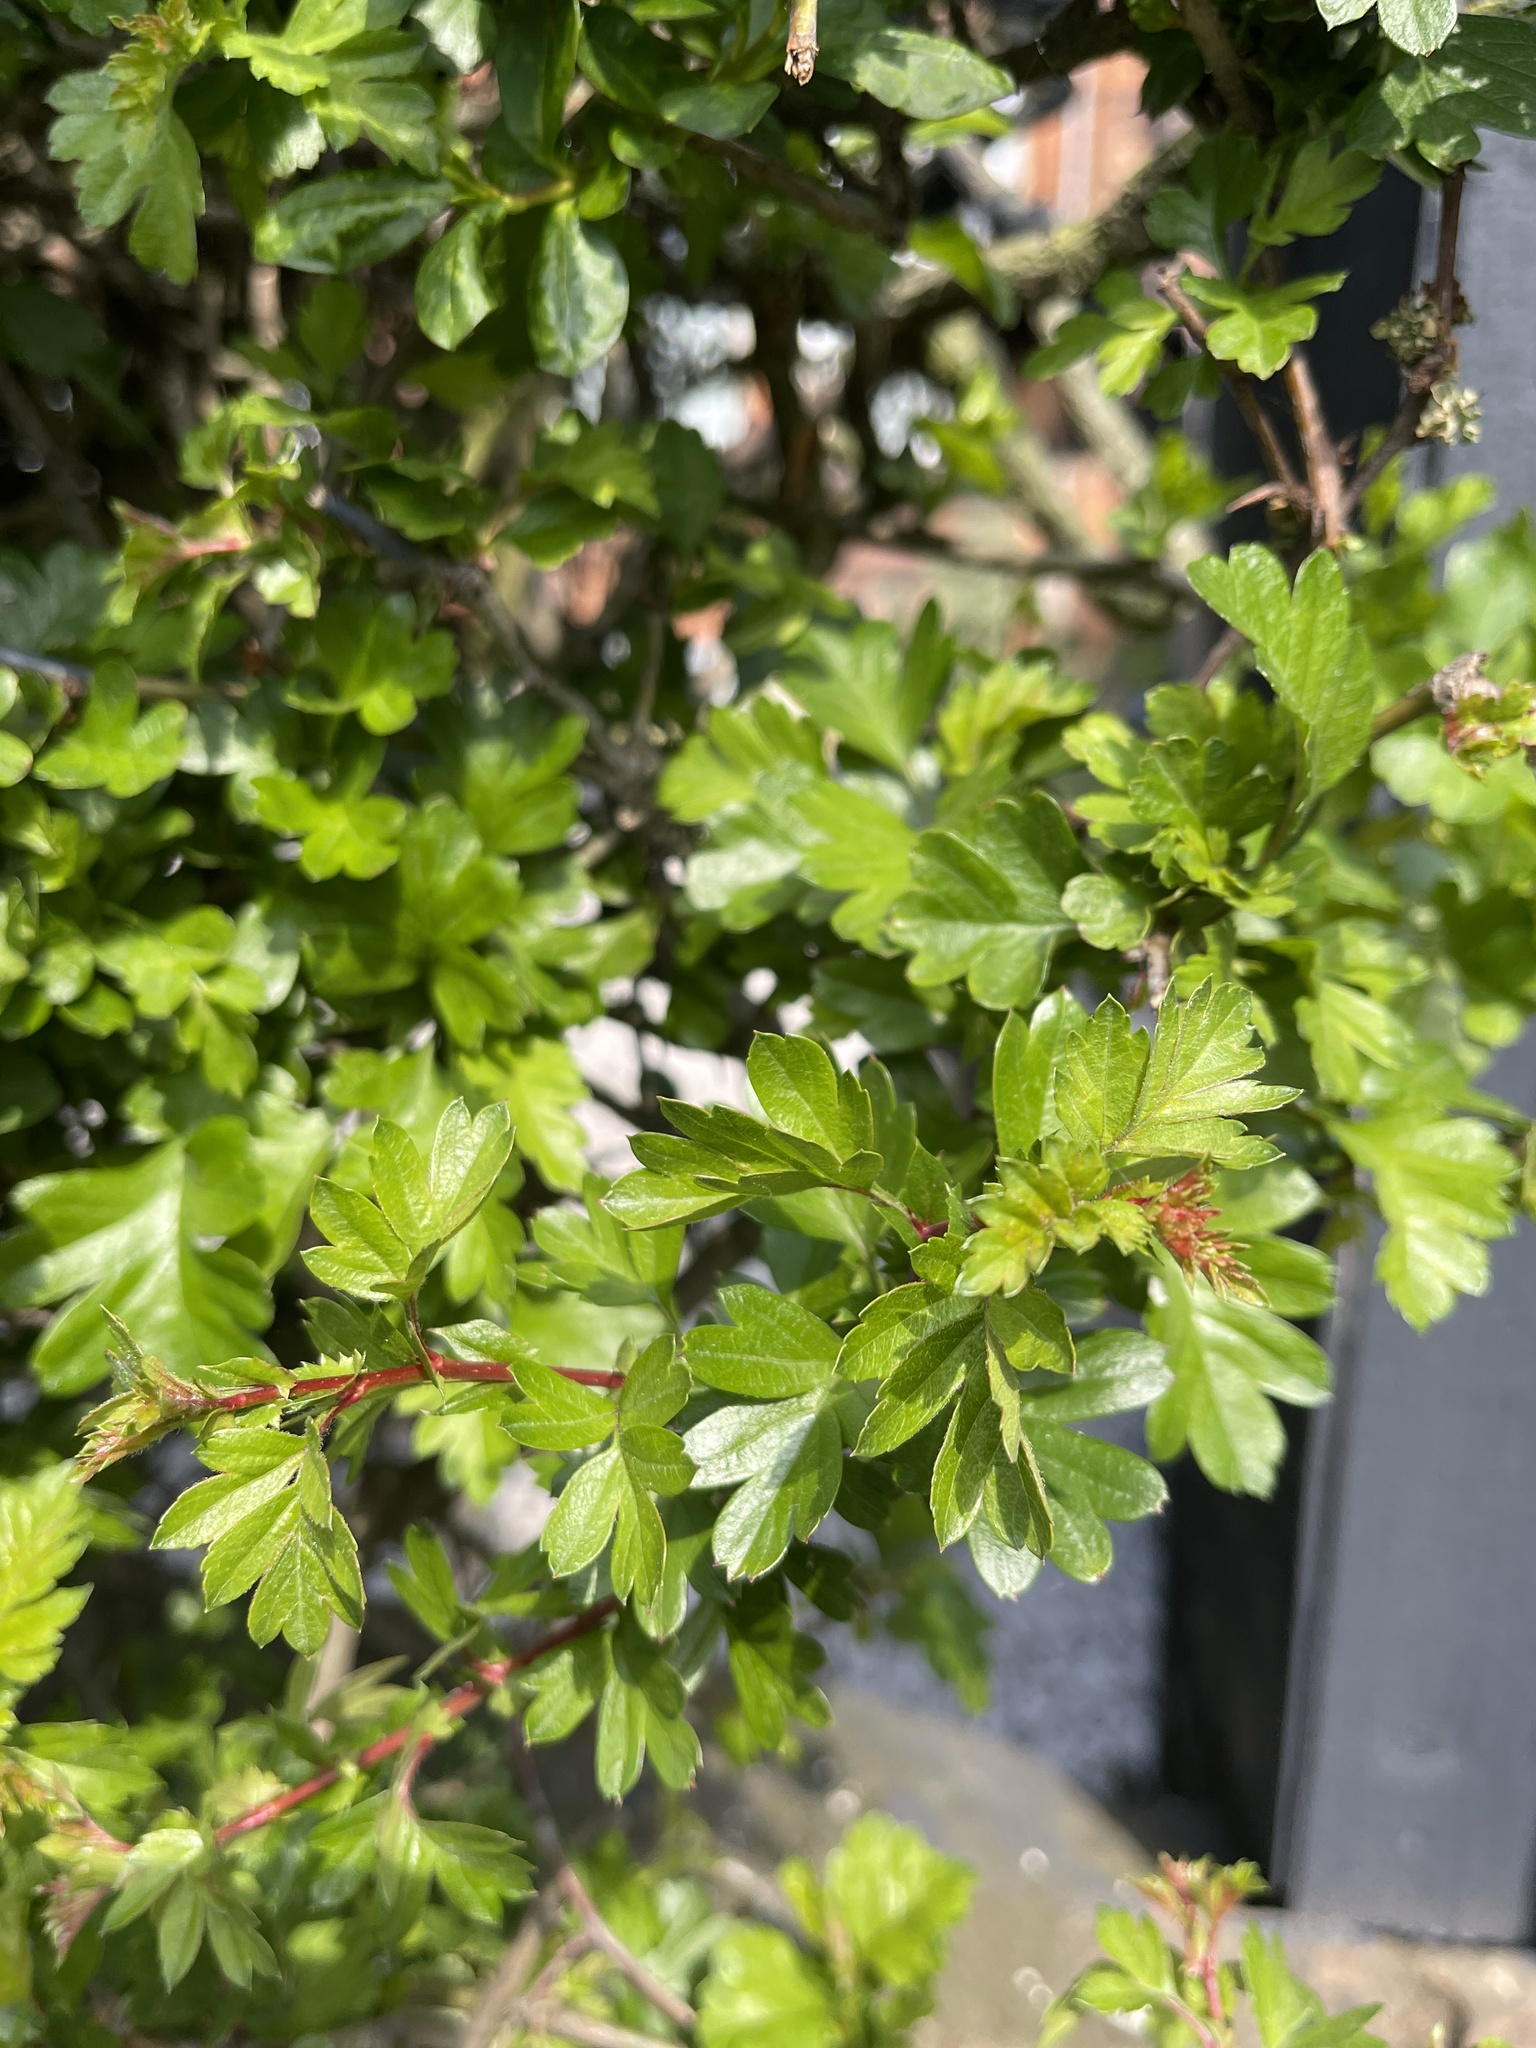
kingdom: Plantae
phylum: Tracheophyta
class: Magnoliopsida
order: Rosales
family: Rosaceae
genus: Crataegus
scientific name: Crataegus monogyna
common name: Hawthorn
